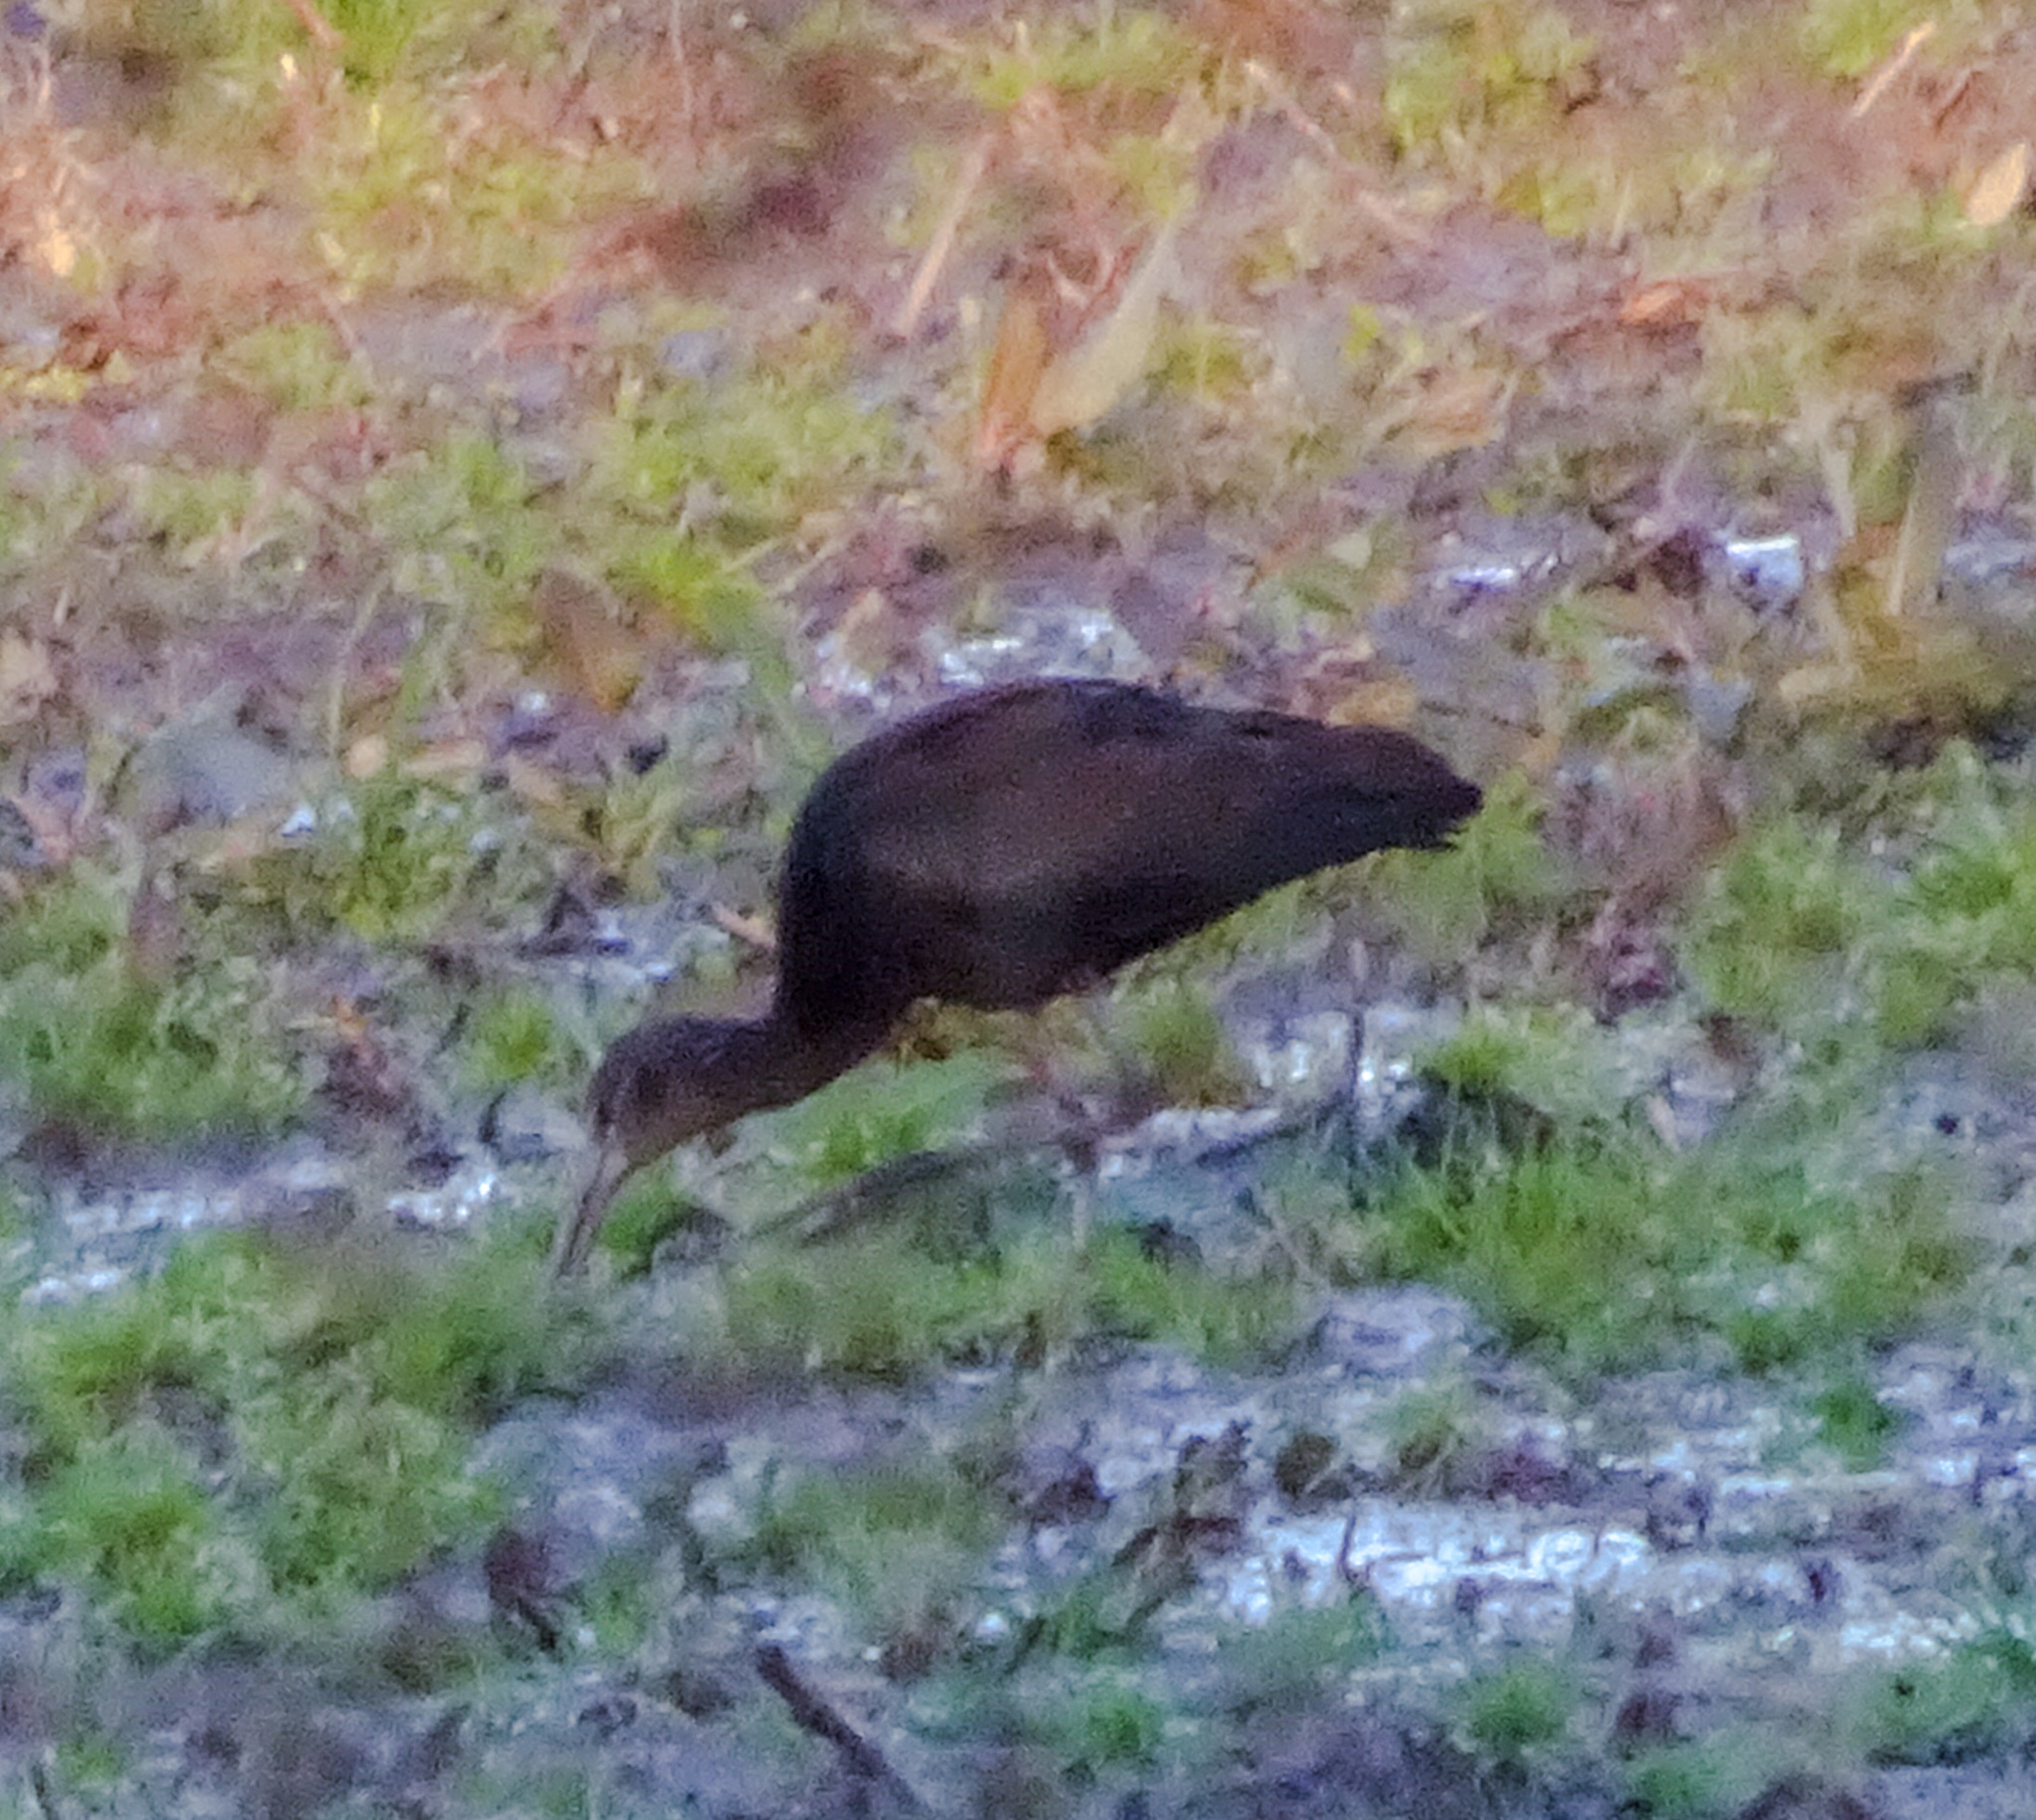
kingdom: Animalia
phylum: Chordata
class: Aves
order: Pelecaniformes
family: Threskiornithidae
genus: Plegadis
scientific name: Plegadis
